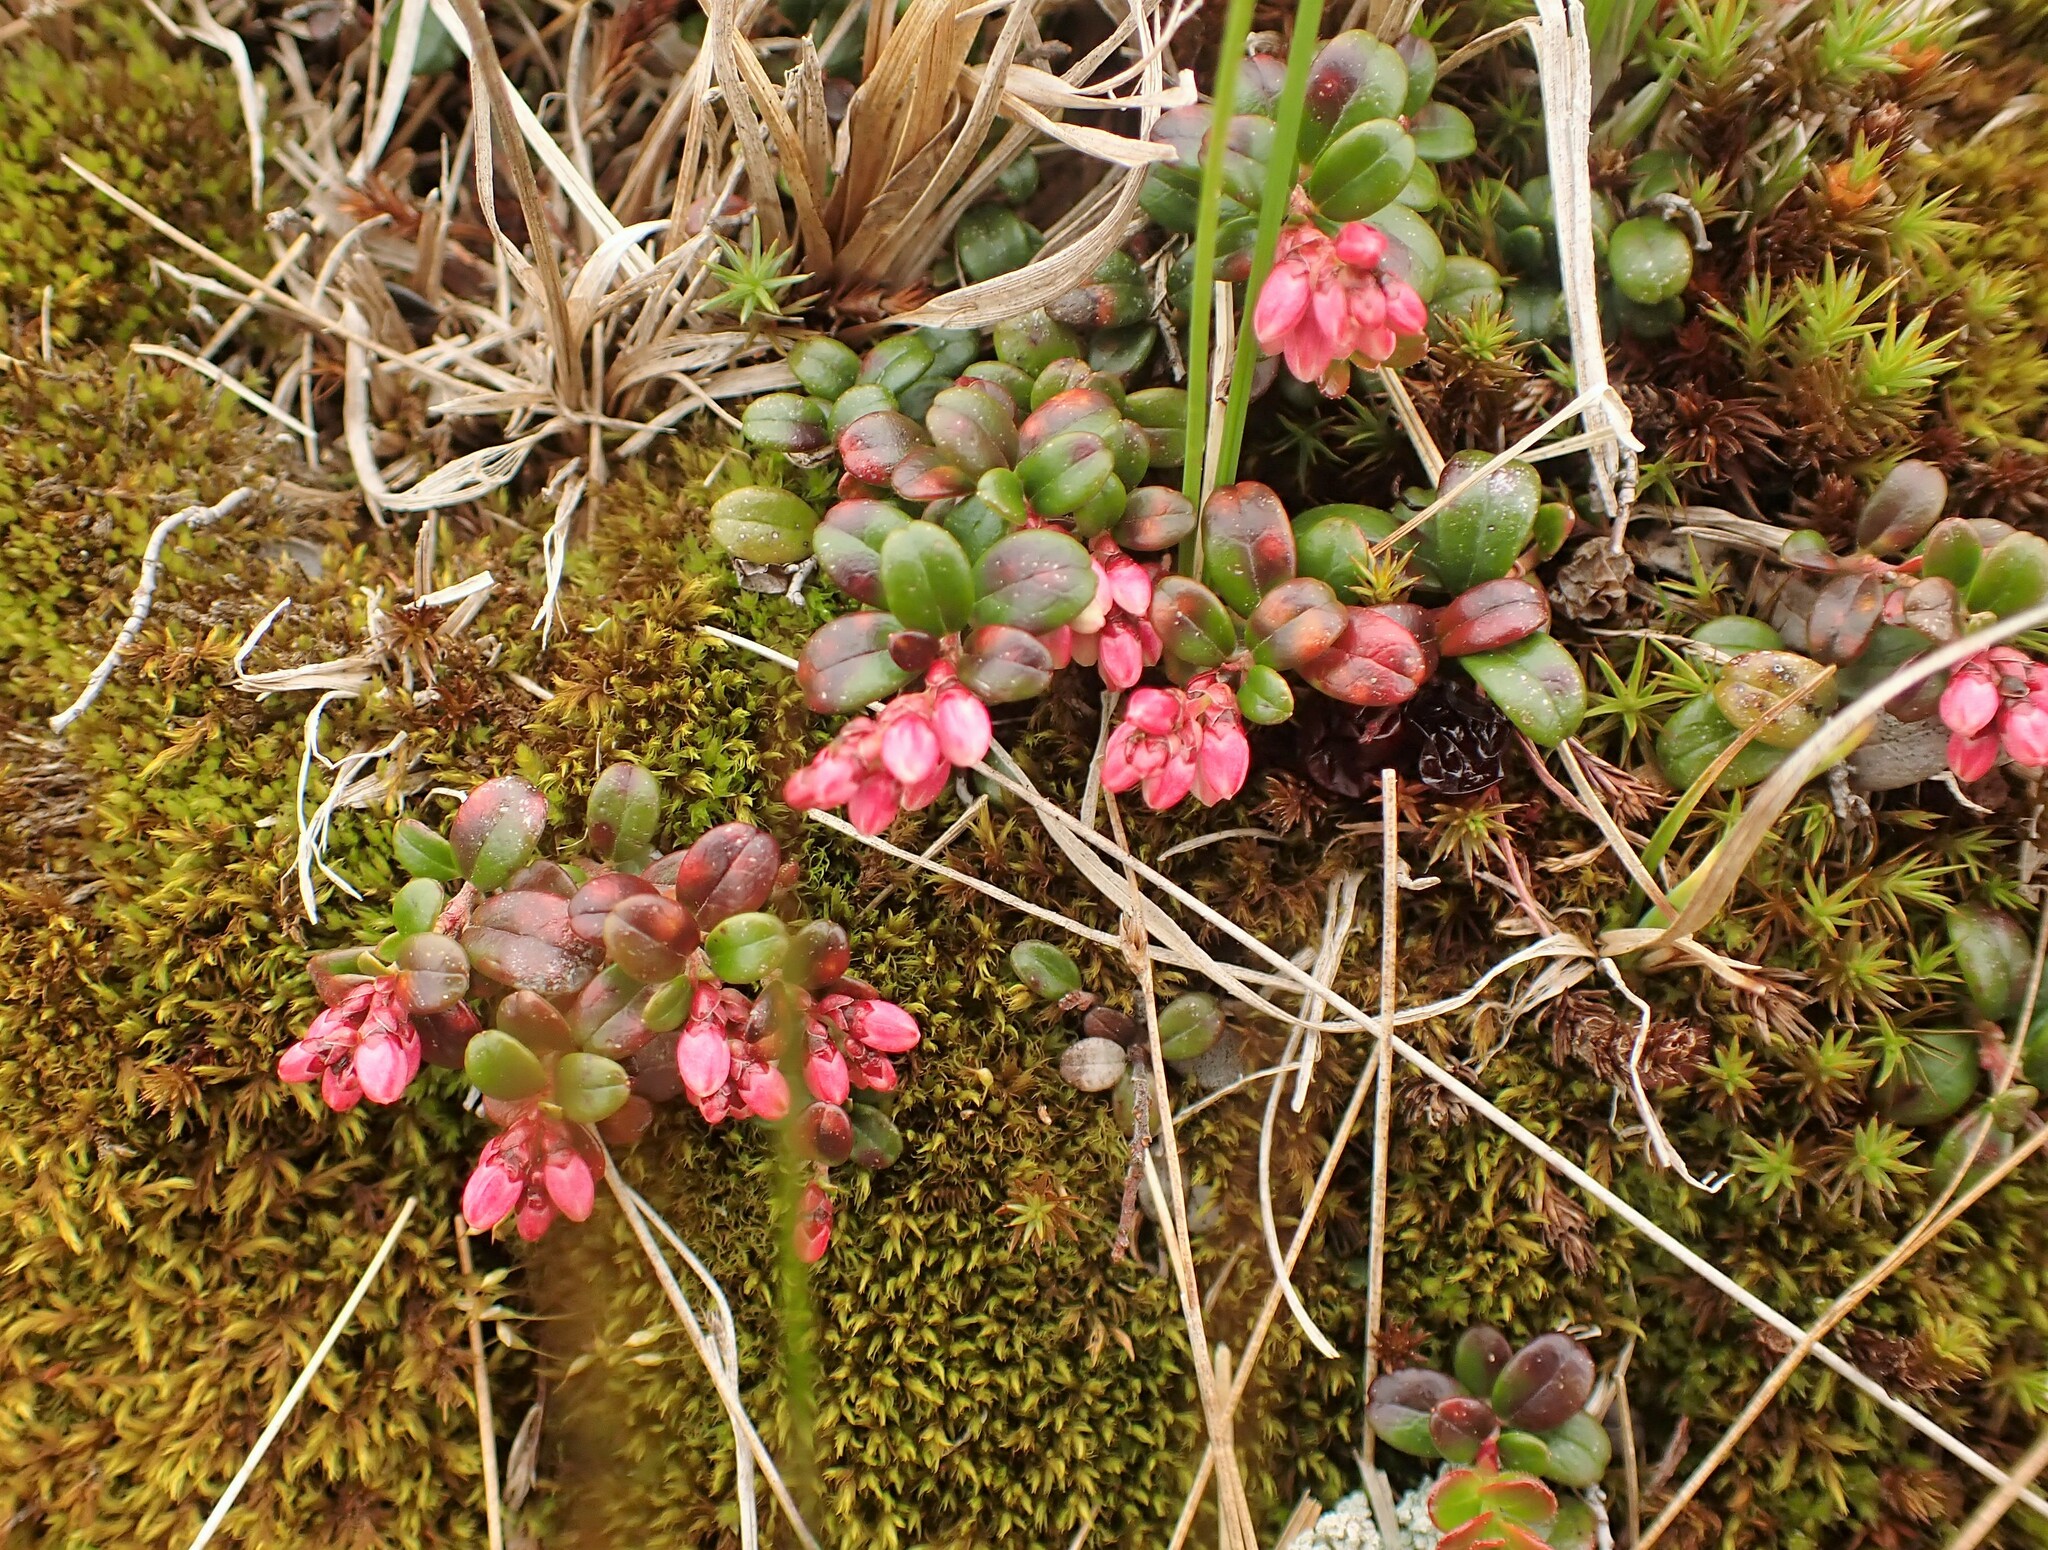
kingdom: Plantae
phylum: Tracheophyta
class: Magnoliopsida
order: Ericales
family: Ericaceae
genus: Vaccinium
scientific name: Vaccinium vitis-idaea
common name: Cowberry
